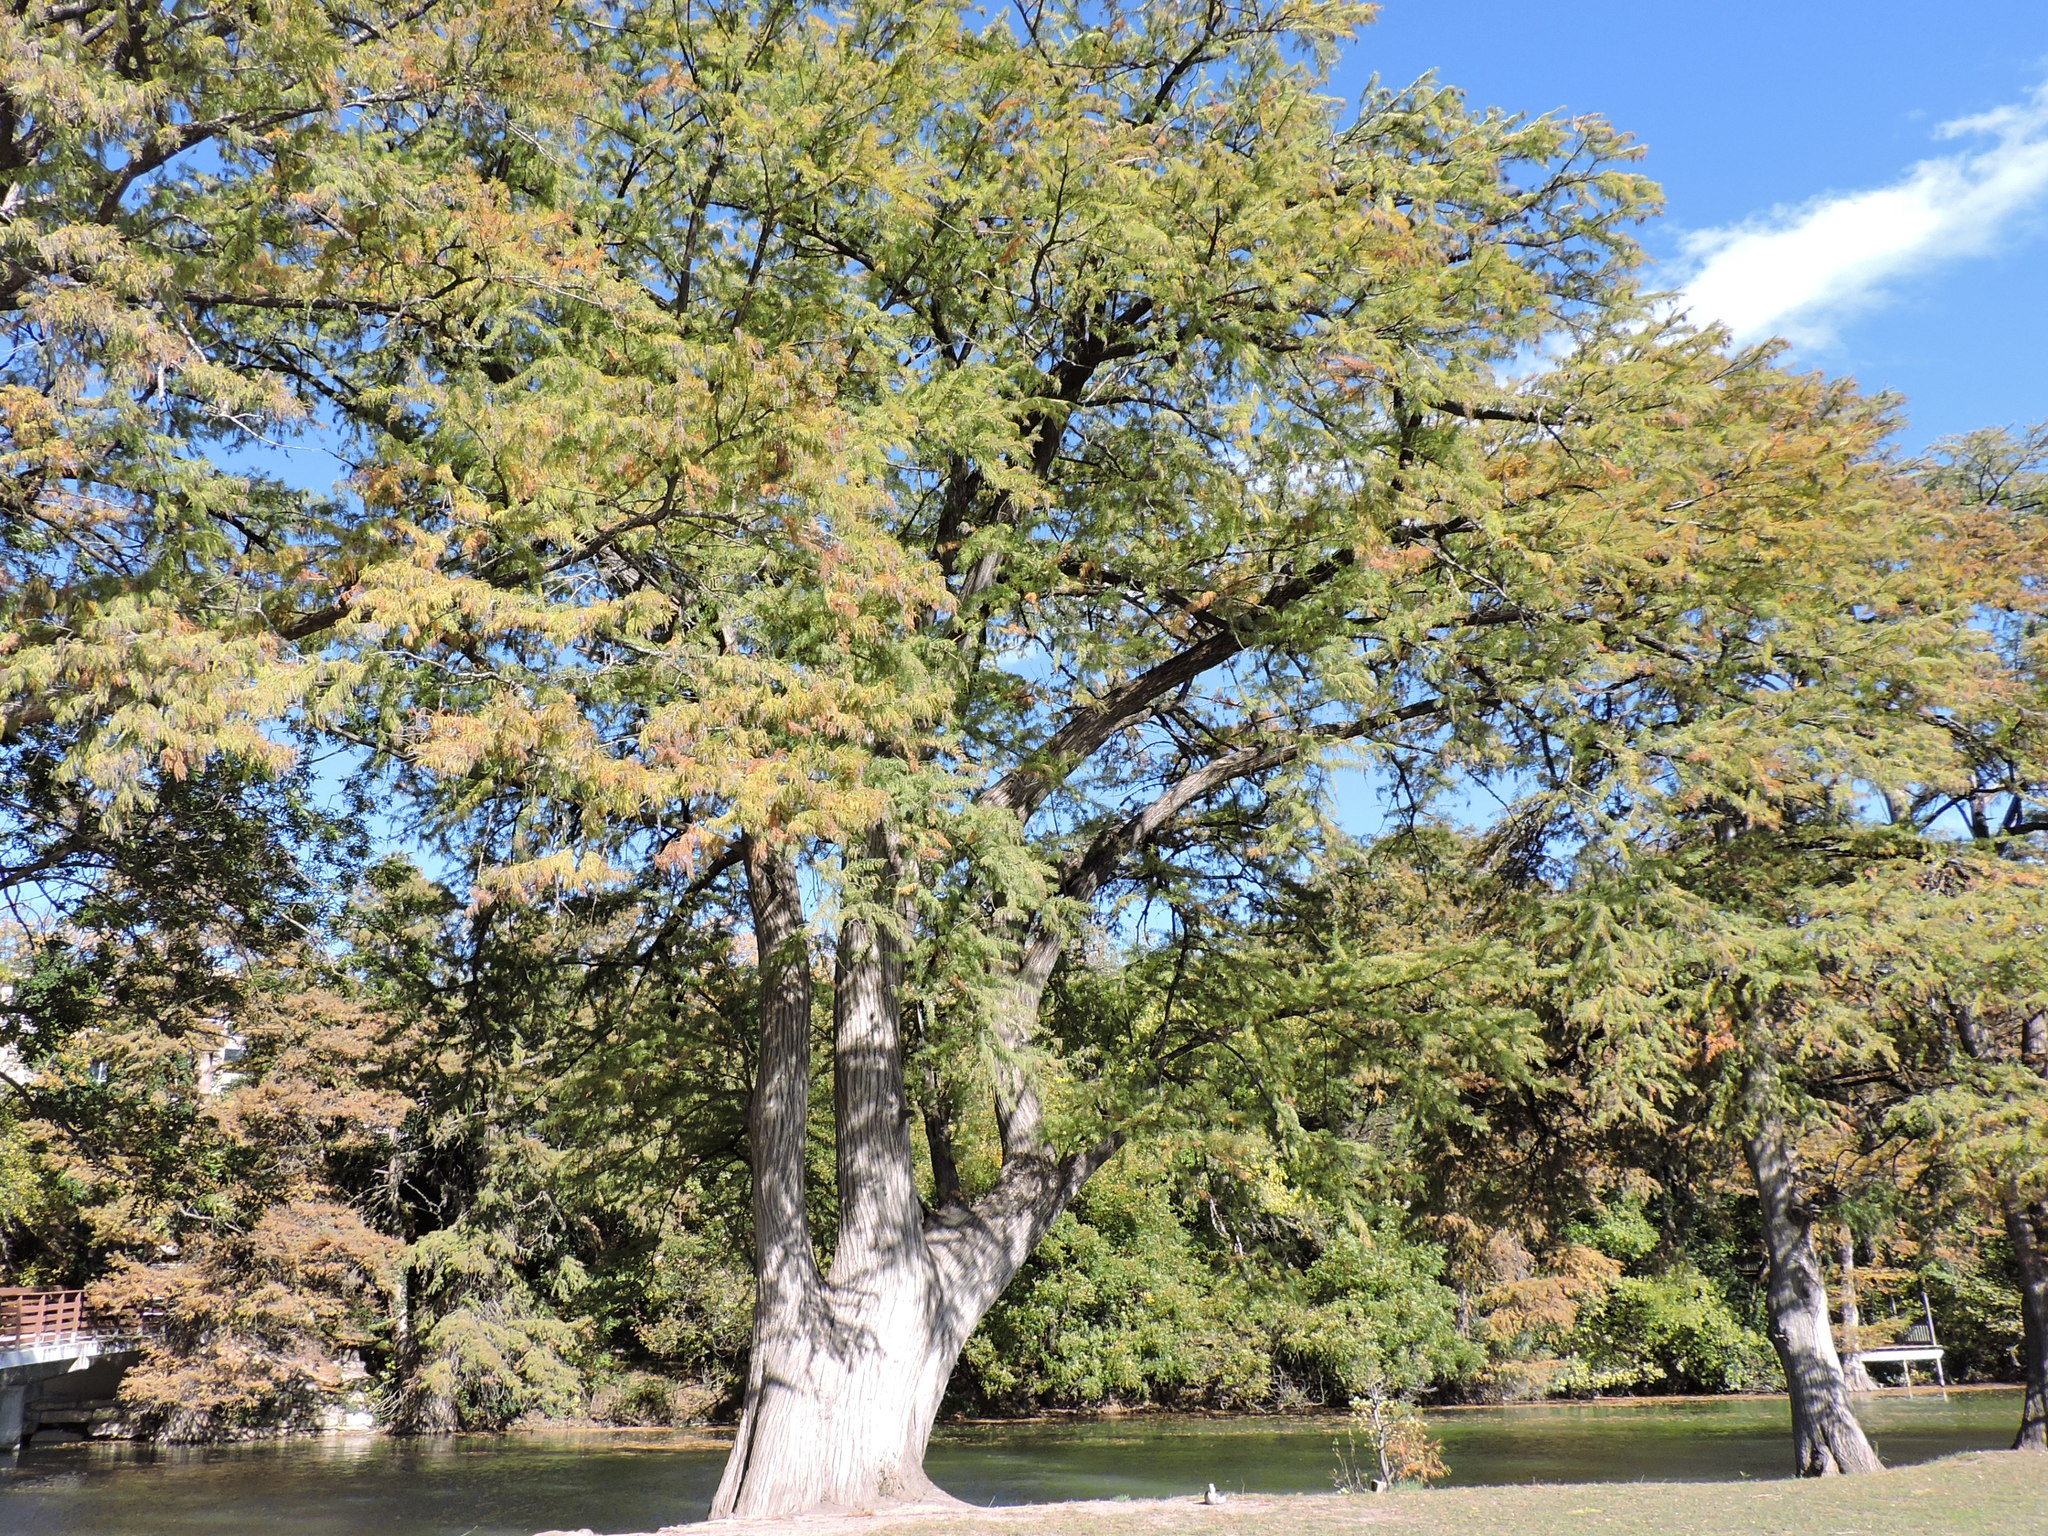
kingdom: Plantae
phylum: Tracheophyta
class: Pinopsida
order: Pinales
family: Cupressaceae
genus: Taxodium
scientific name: Taxodium distichum
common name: Bald cypress
